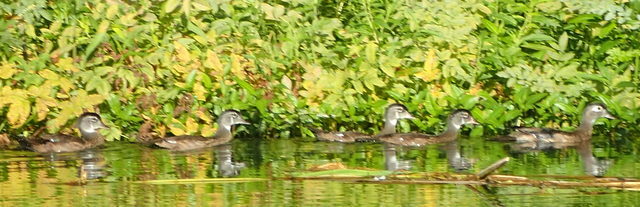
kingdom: Animalia
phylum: Chordata
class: Aves
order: Anseriformes
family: Anatidae
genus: Aix
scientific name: Aix sponsa
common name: Wood duck
